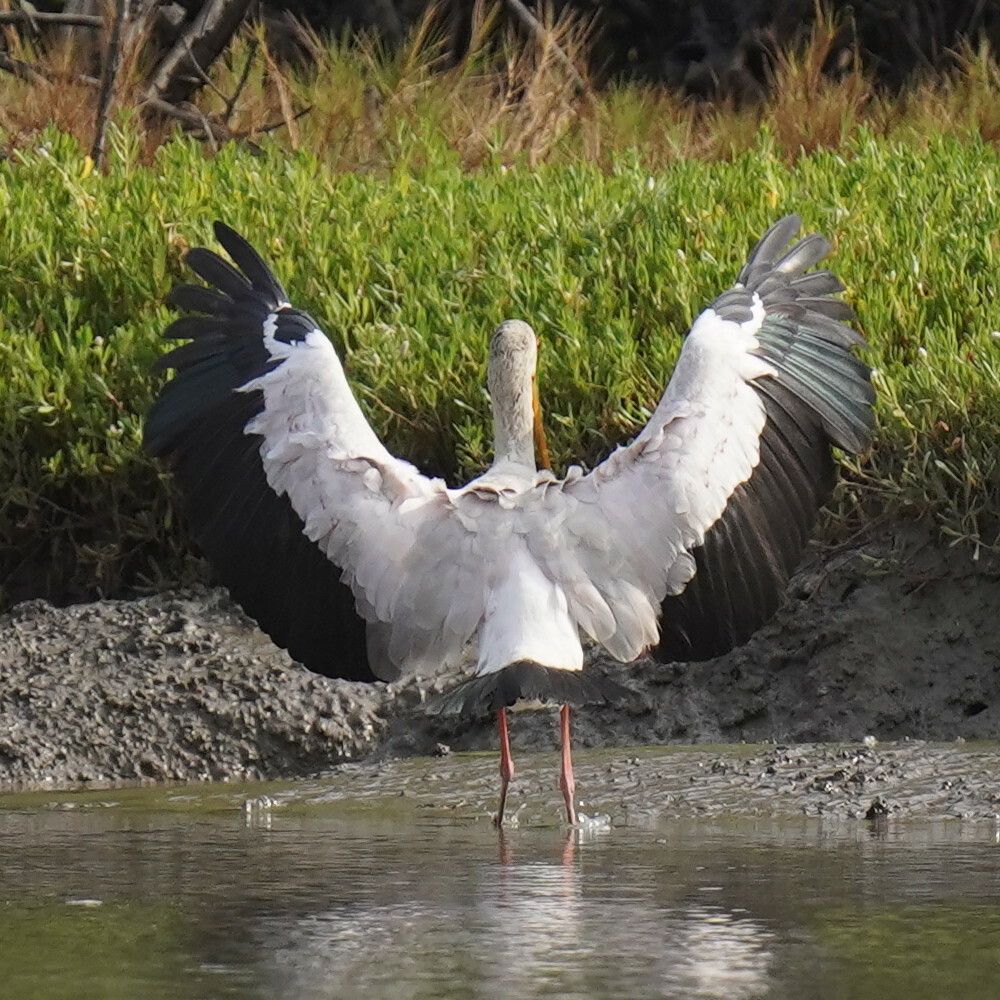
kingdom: Animalia
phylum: Chordata
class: Aves
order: Ciconiiformes
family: Ciconiidae
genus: Mycteria
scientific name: Mycteria ibis
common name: Yellow-billed stork
